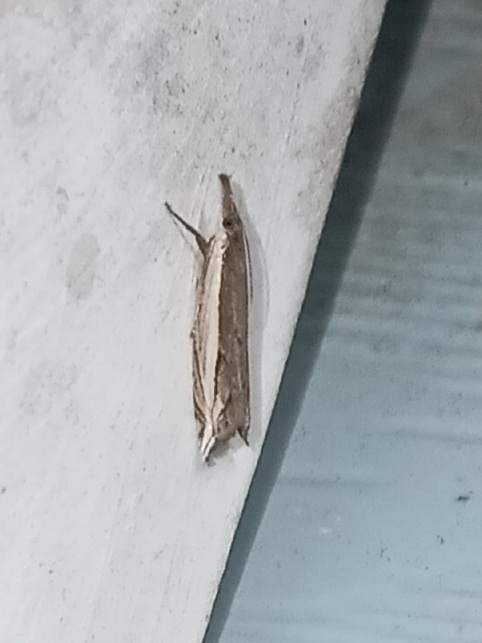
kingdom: Animalia
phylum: Arthropoda
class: Insecta
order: Lepidoptera
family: Crambidae
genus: Raphiptera
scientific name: Raphiptera argillaceellus
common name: Diminutive grass-veneer
